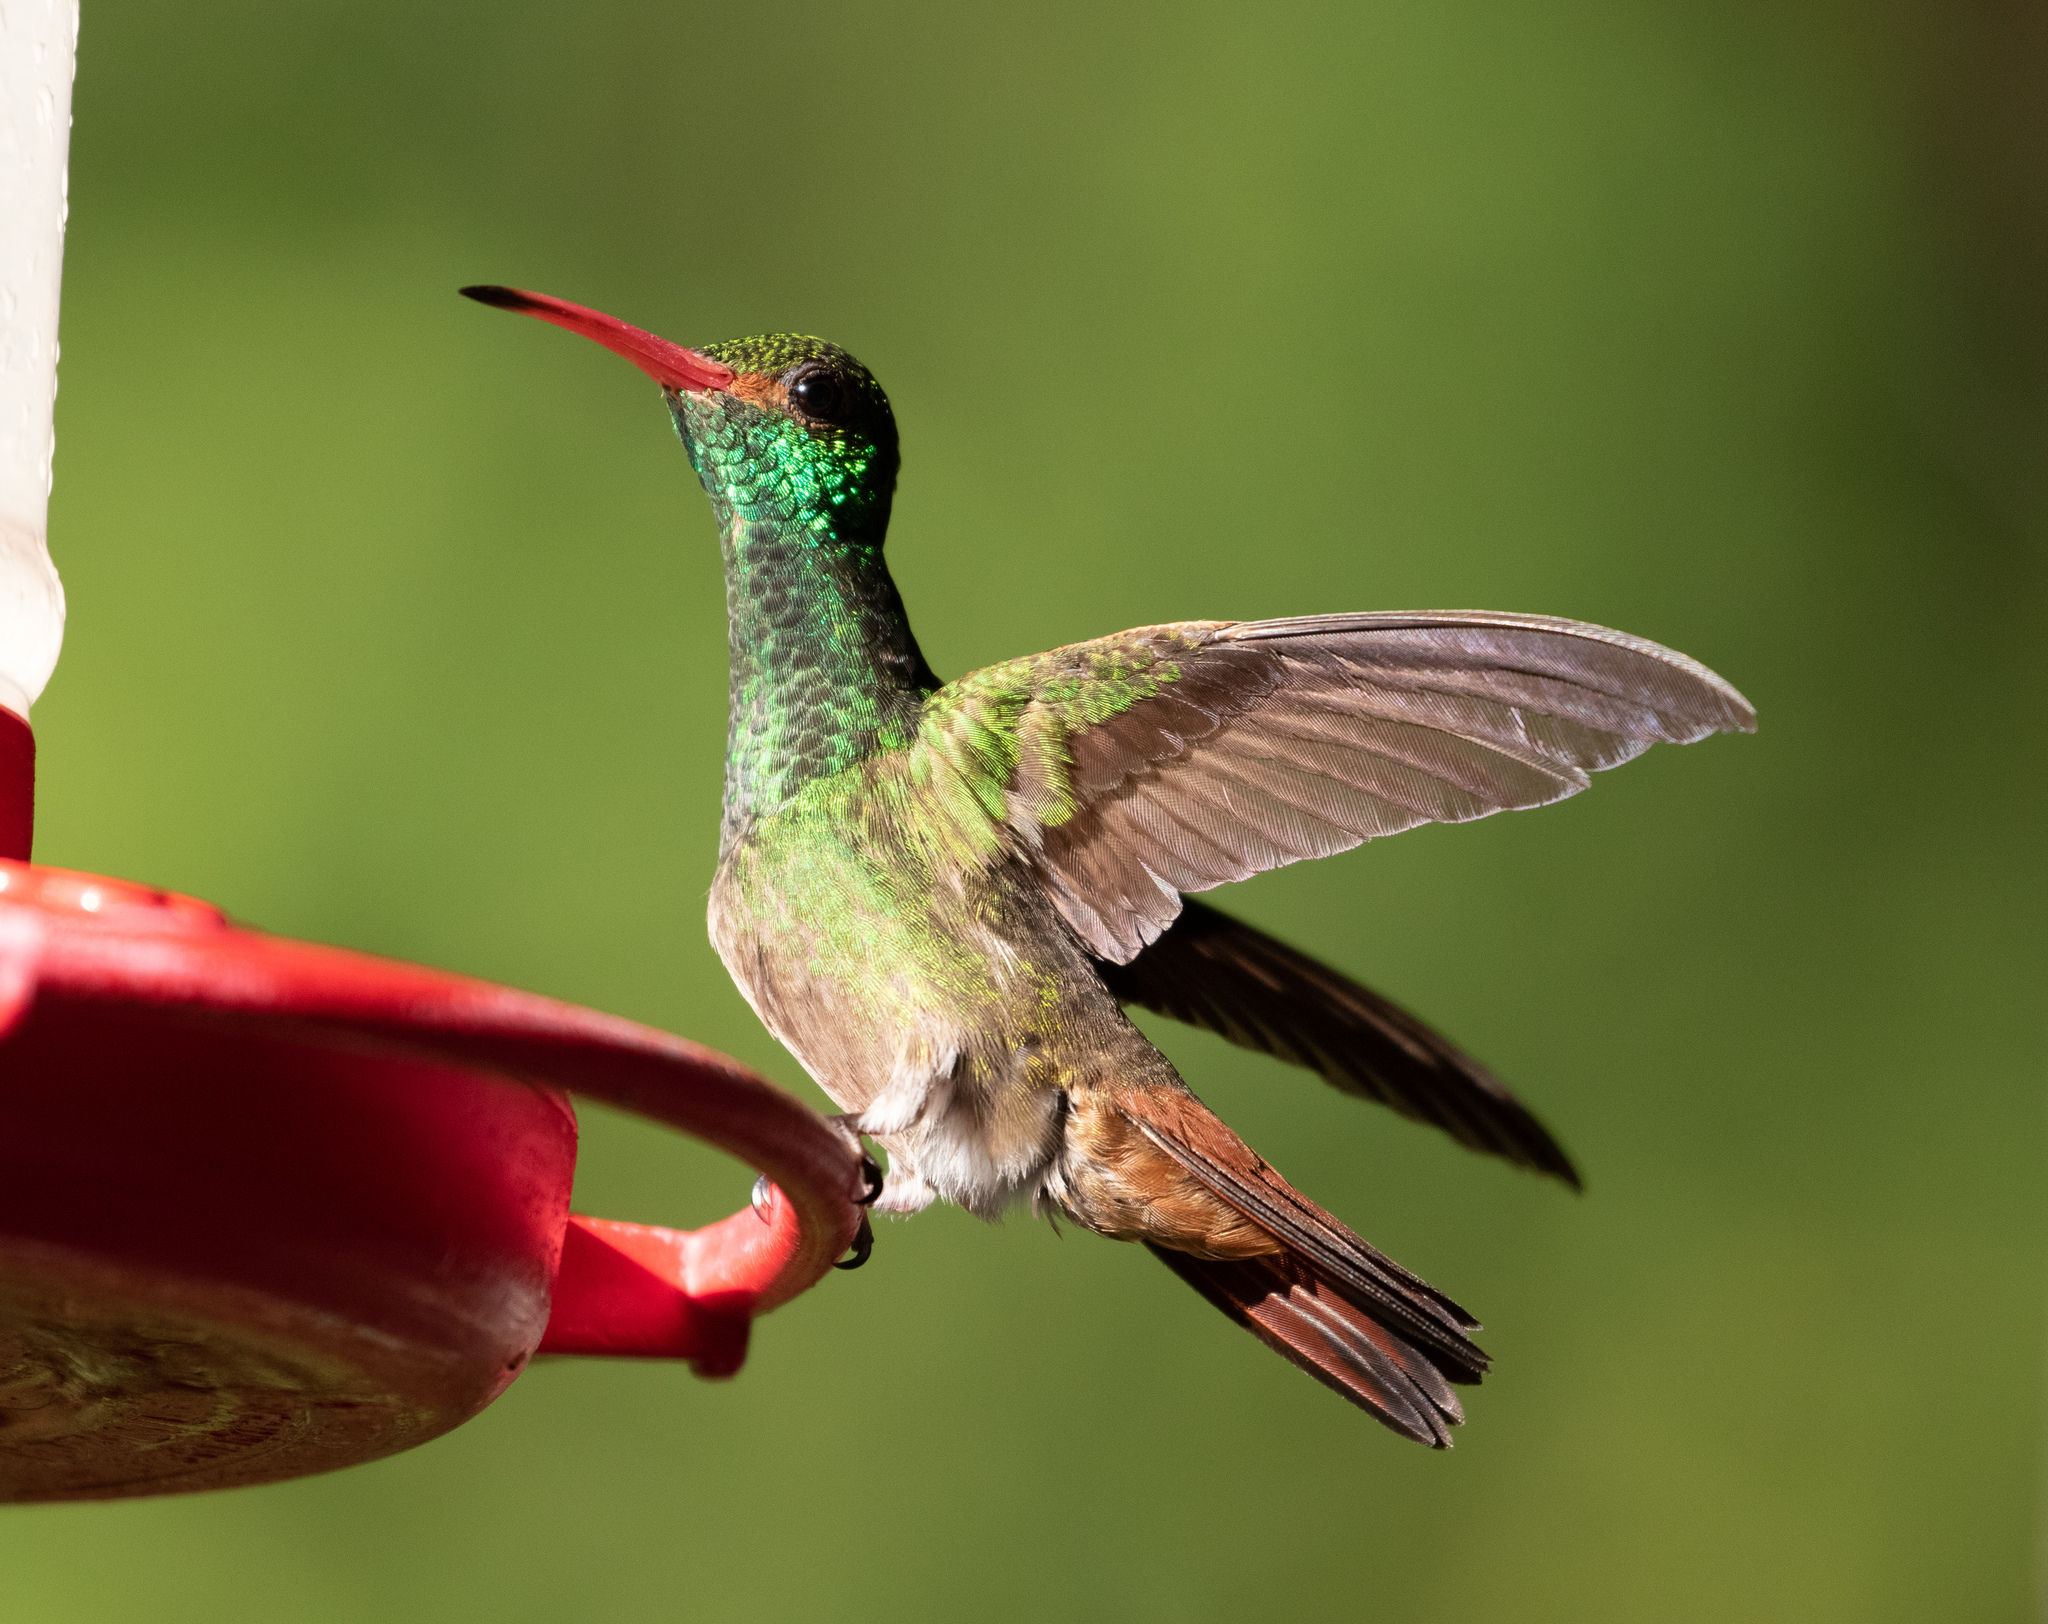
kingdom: Animalia
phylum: Chordata
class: Aves
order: Apodiformes
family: Trochilidae
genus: Amazilia
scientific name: Amazilia tzacatl
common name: Rufous-tailed hummingbird
